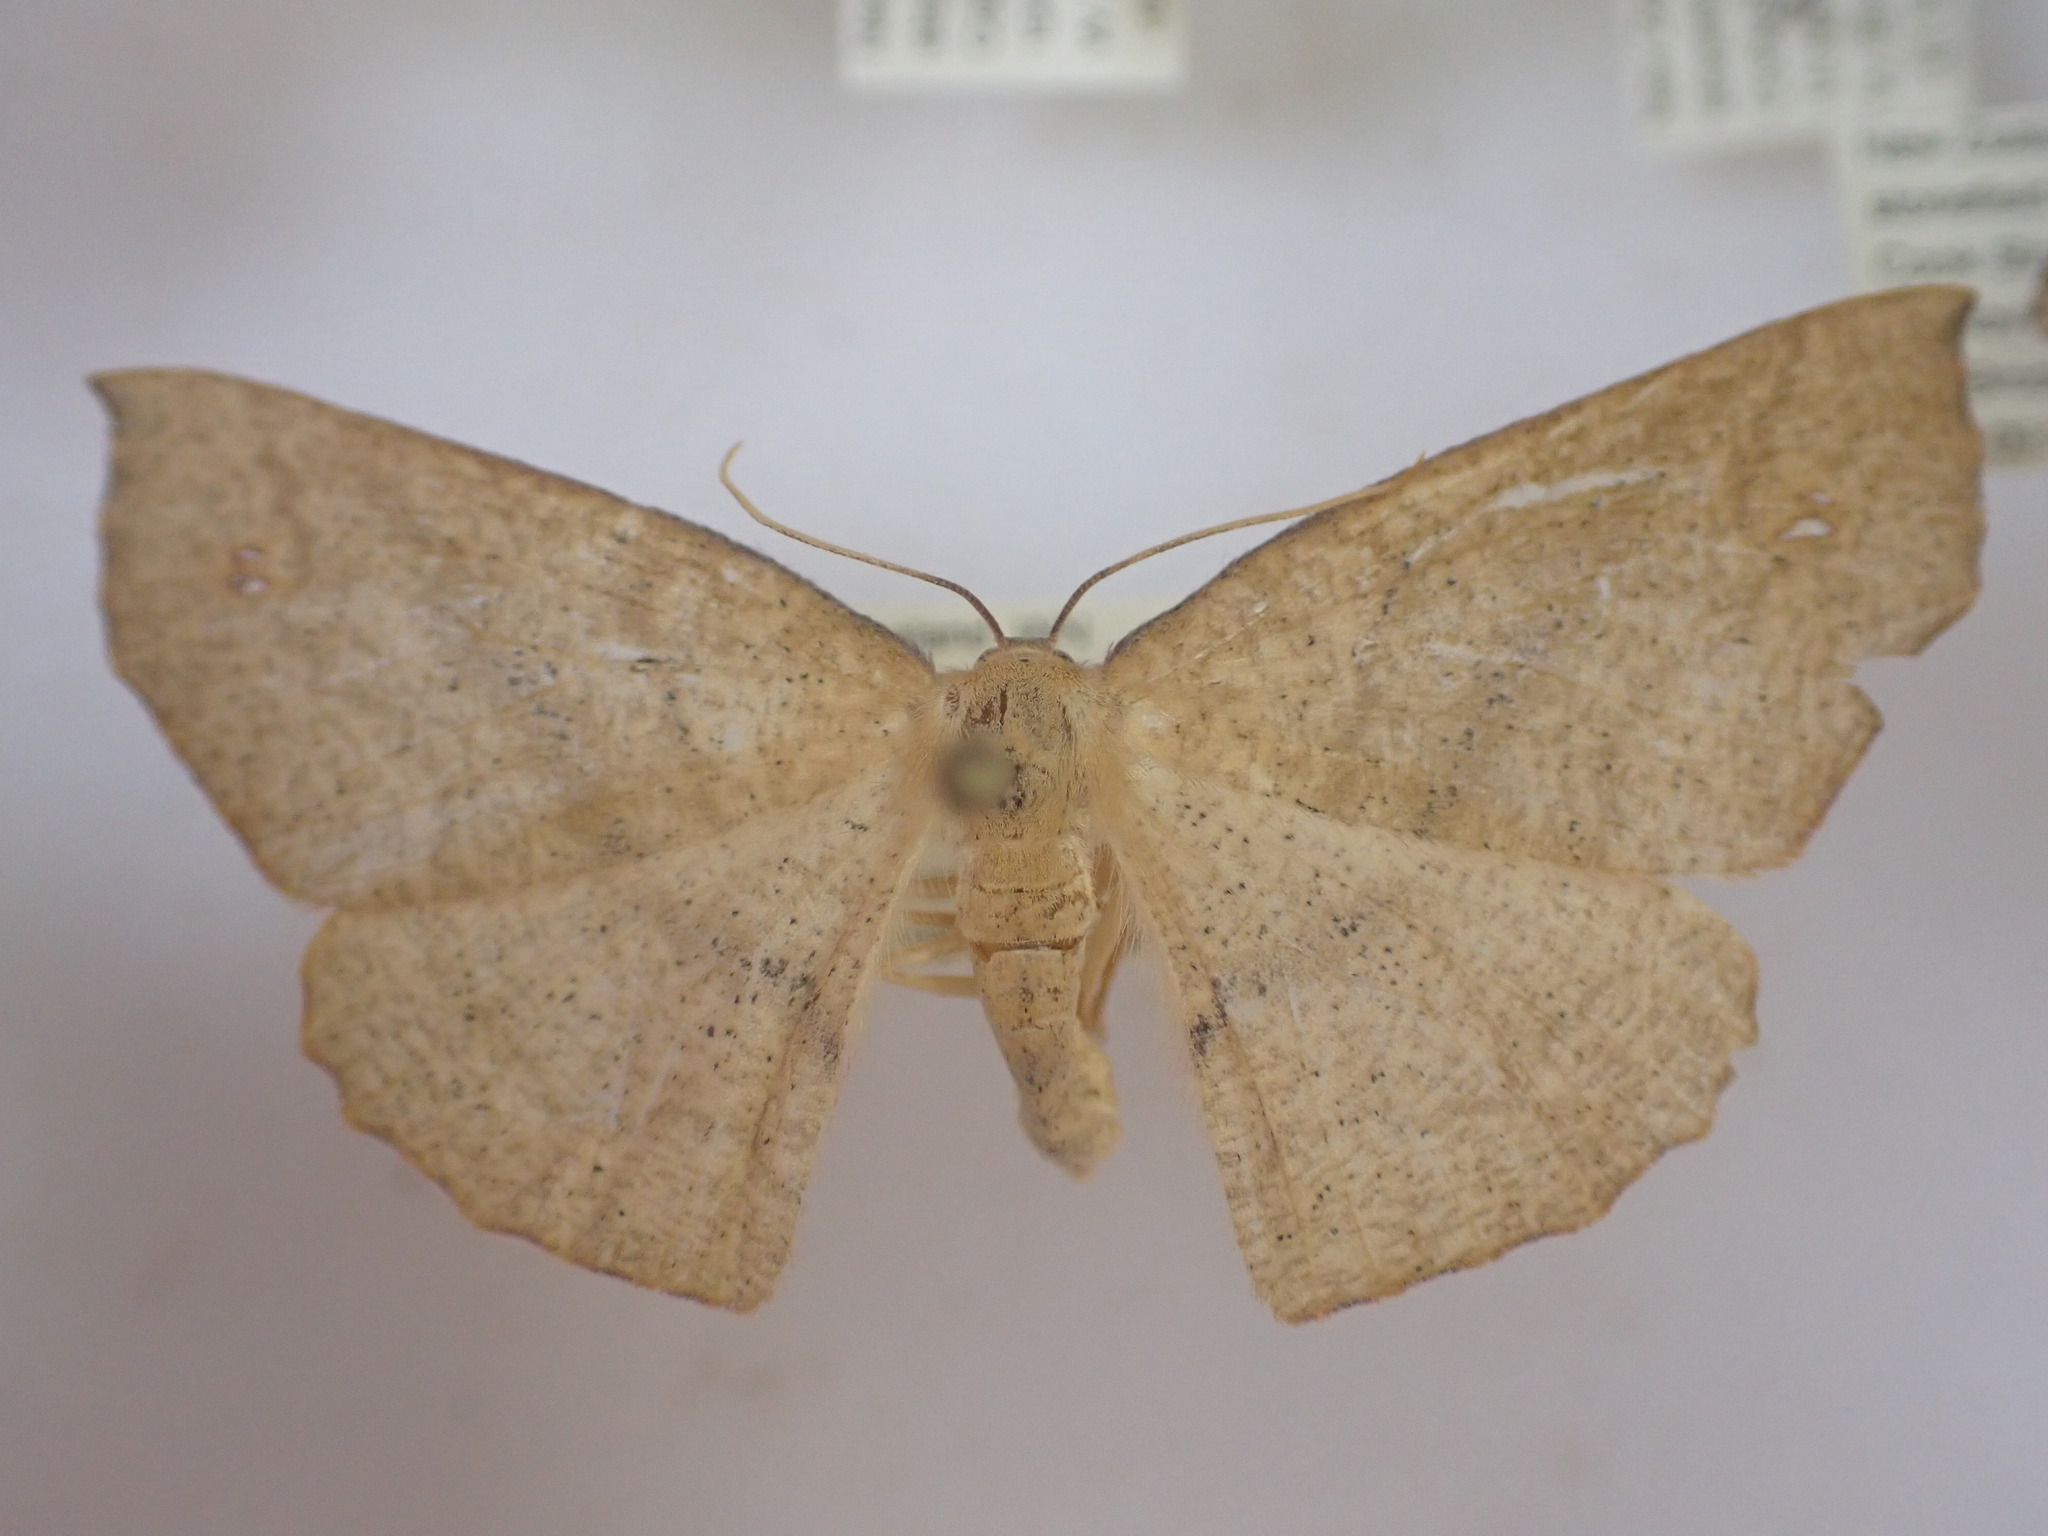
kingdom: Animalia
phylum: Arthropoda
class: Insecta
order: Lepidoptera
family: Geometridae
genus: Xyridacma
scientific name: Xyridacma alectoraria
